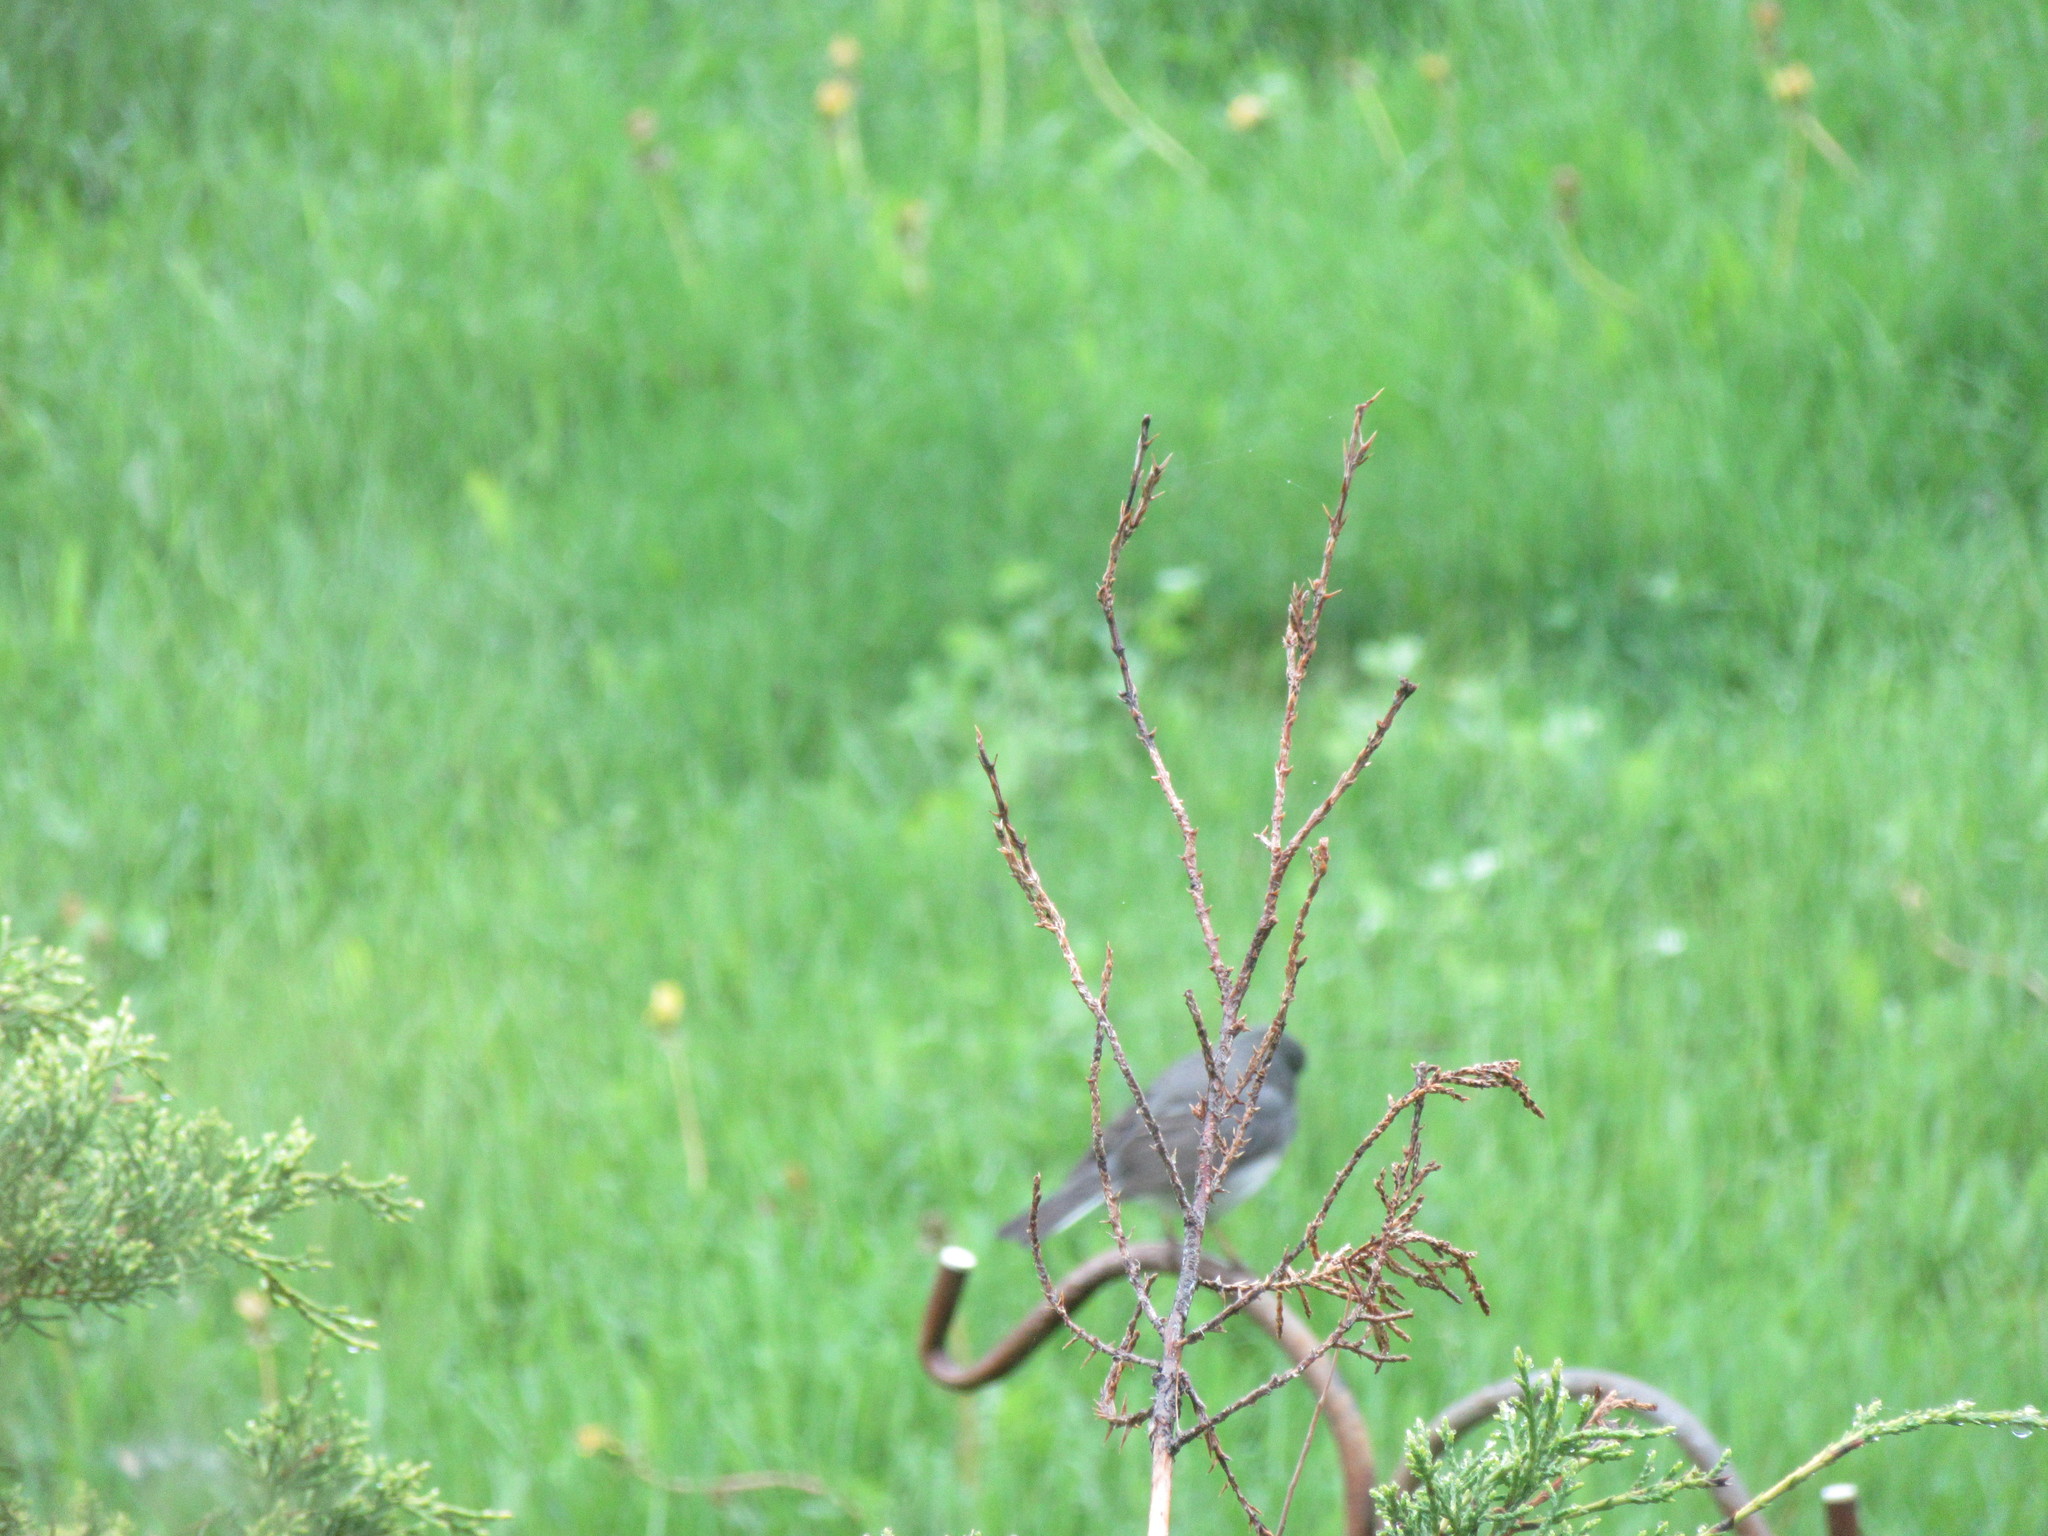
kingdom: Animalia
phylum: Chordata
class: Aves
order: Passeriformes
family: Passerellidae
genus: Junco
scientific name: Junco hyemalis
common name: Dark-eyed junco
